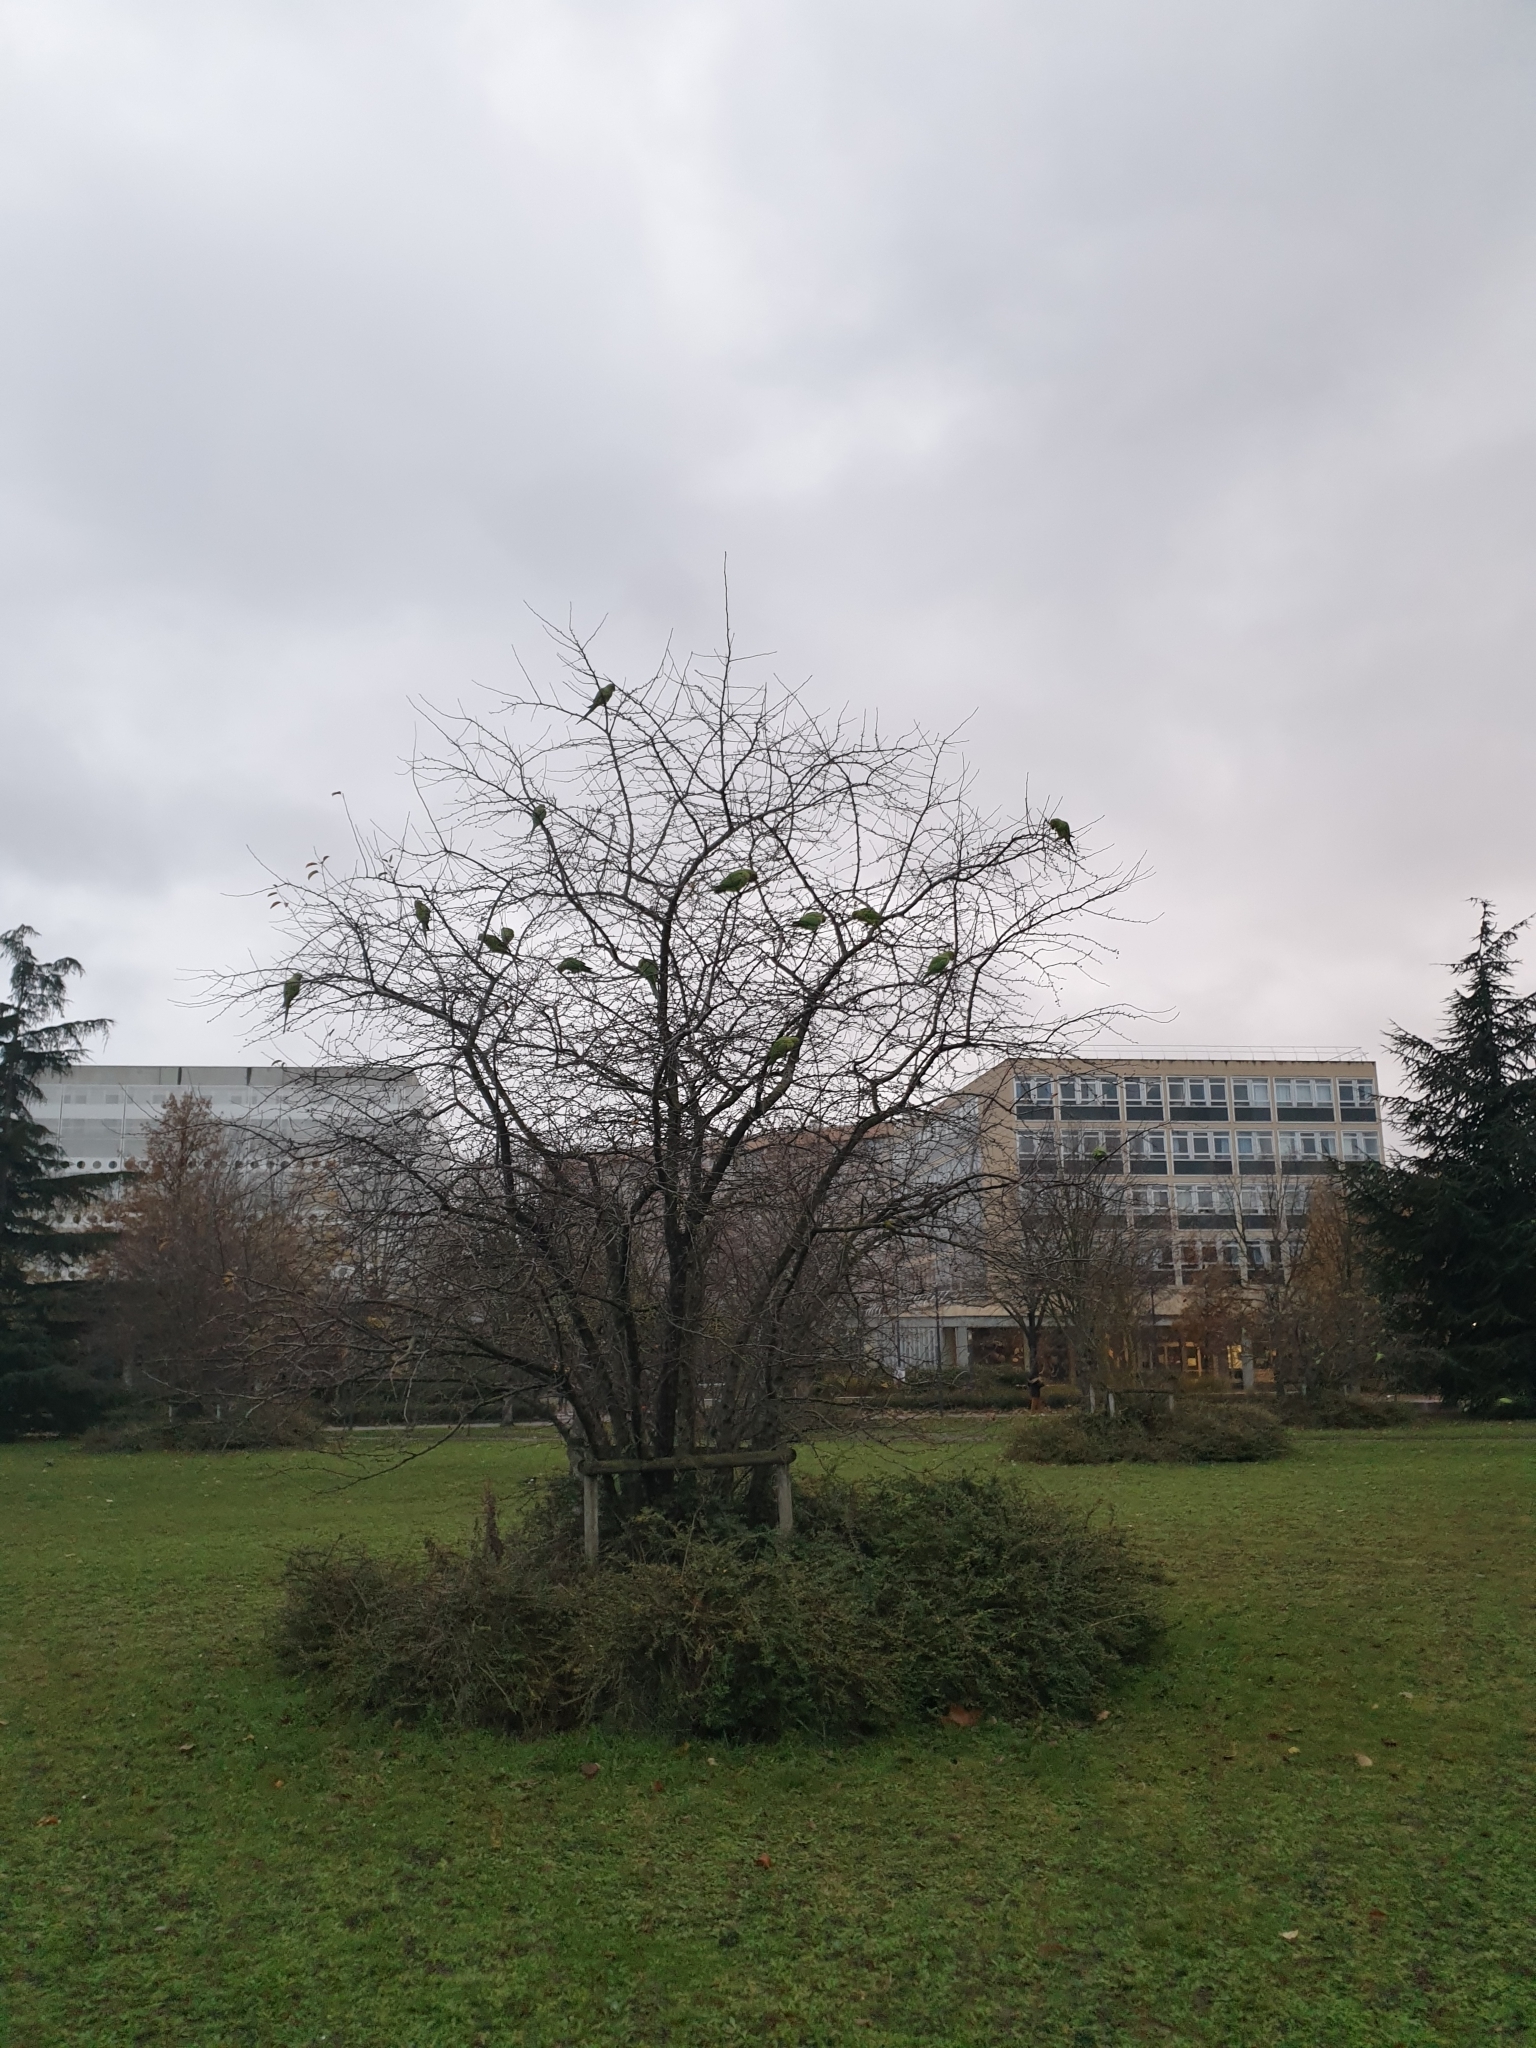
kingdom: Animalia
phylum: Chordata
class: Aves
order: Psittaciformes
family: Psittacidae
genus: Psittacula
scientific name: Psittacula krameri
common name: Rose-ringed parakeet
